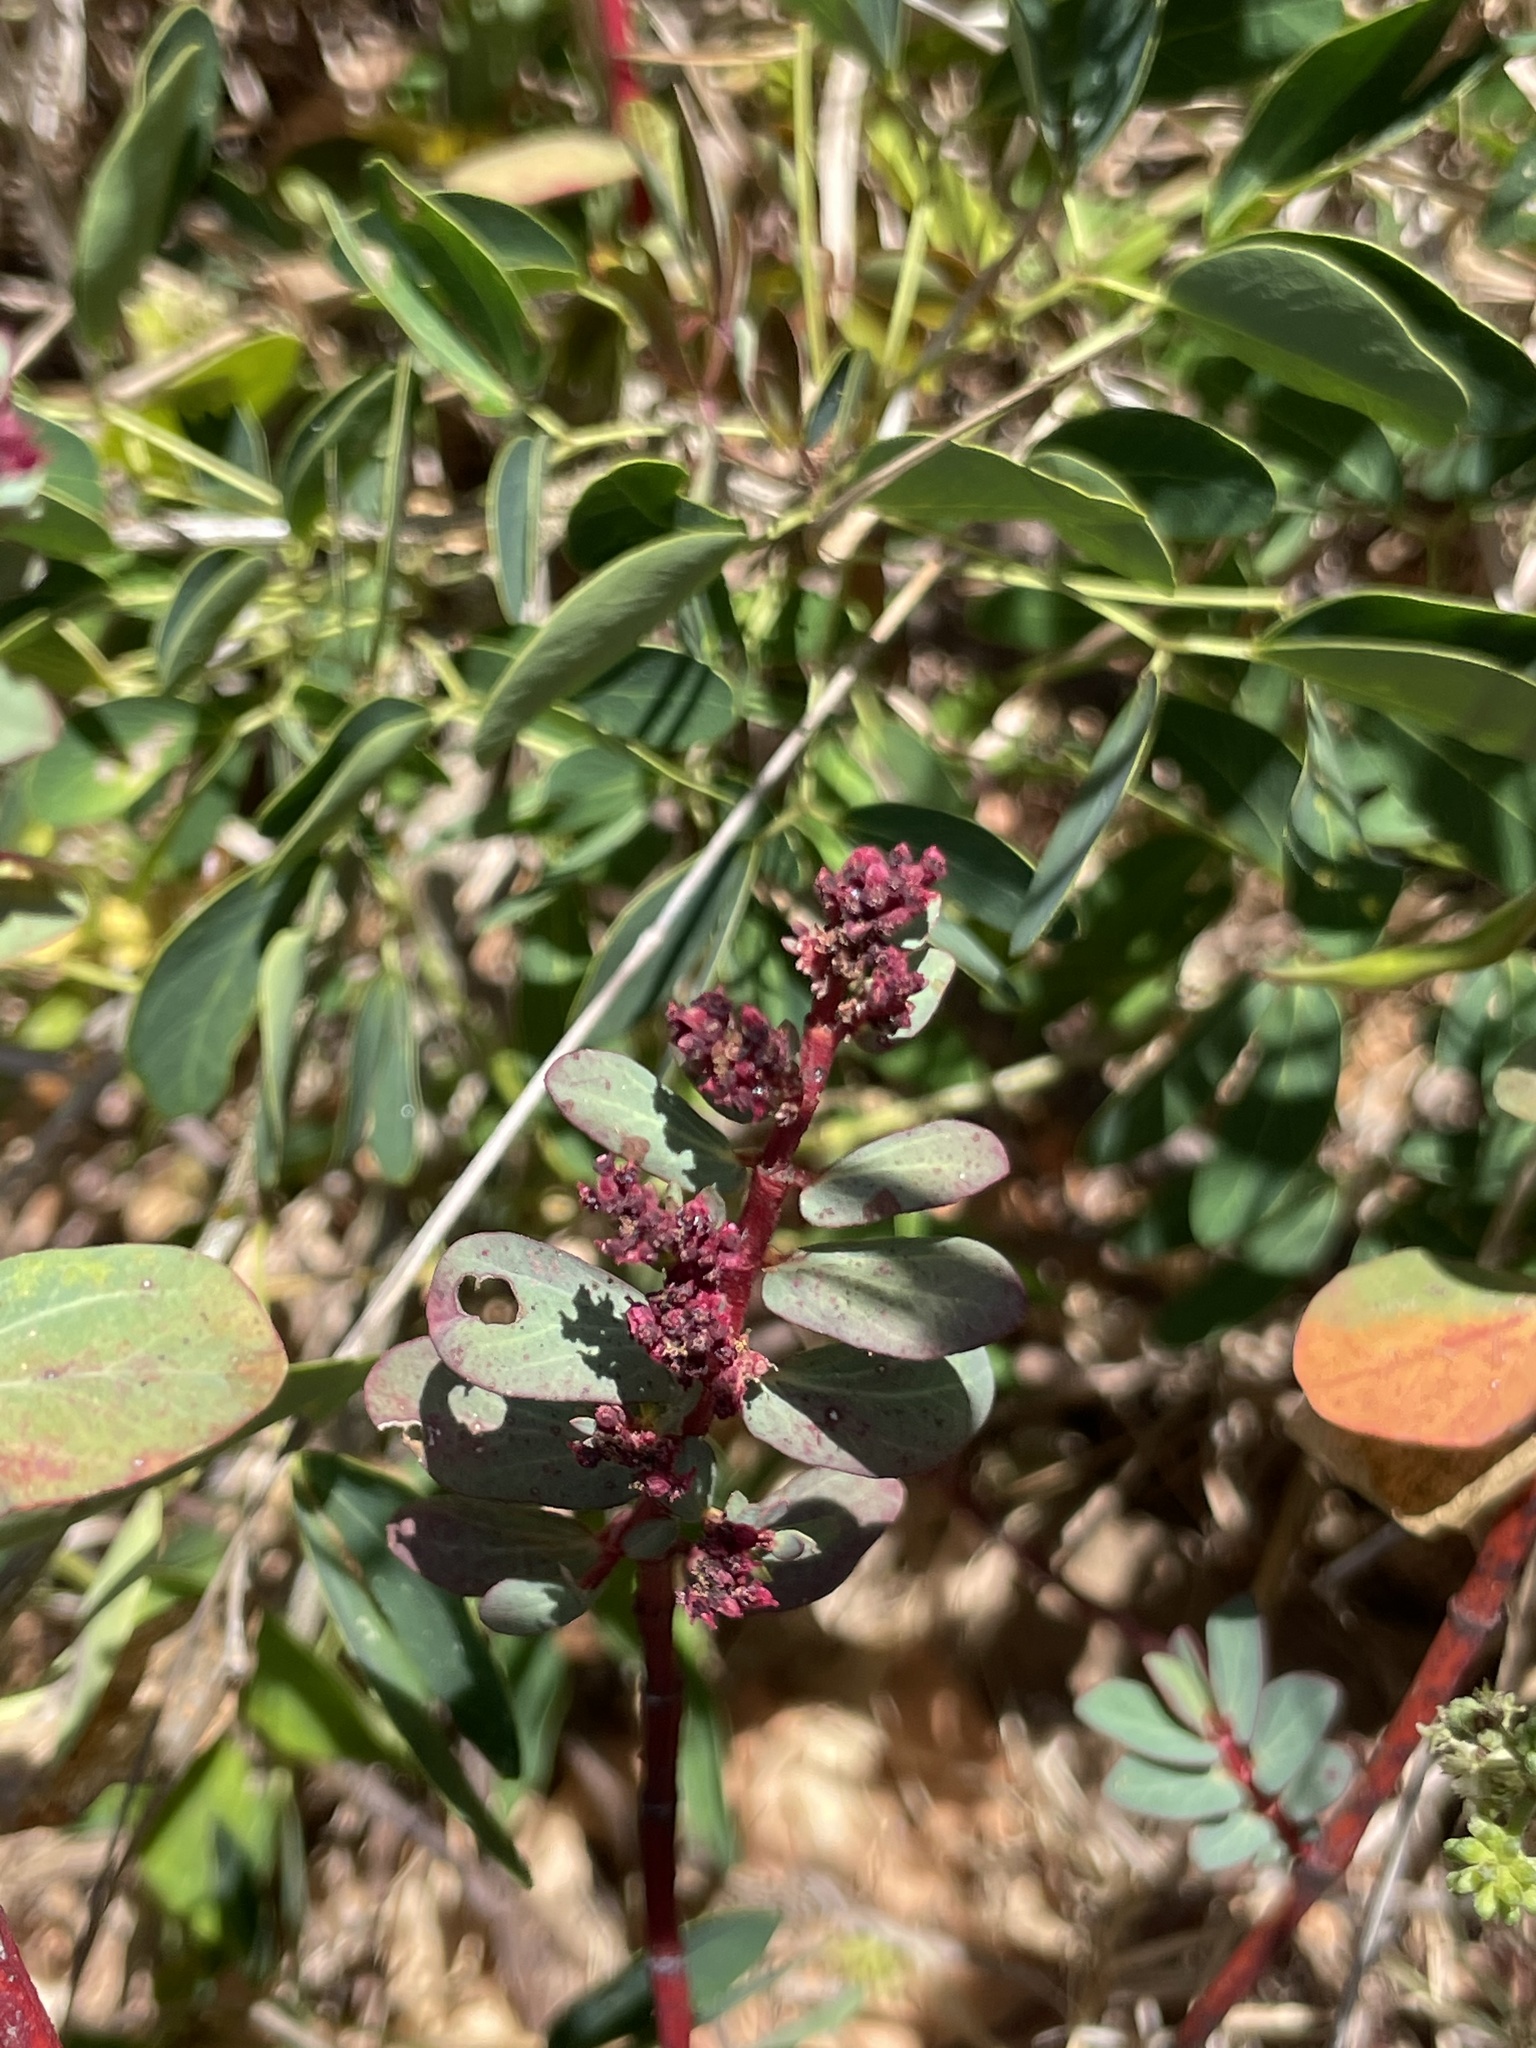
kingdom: Plantae
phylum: Tracheophyta
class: Magnoliopsida
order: Malpighiales
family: Euphorbiaceae
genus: Euphorbia
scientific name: Euphorbia anthonyi
